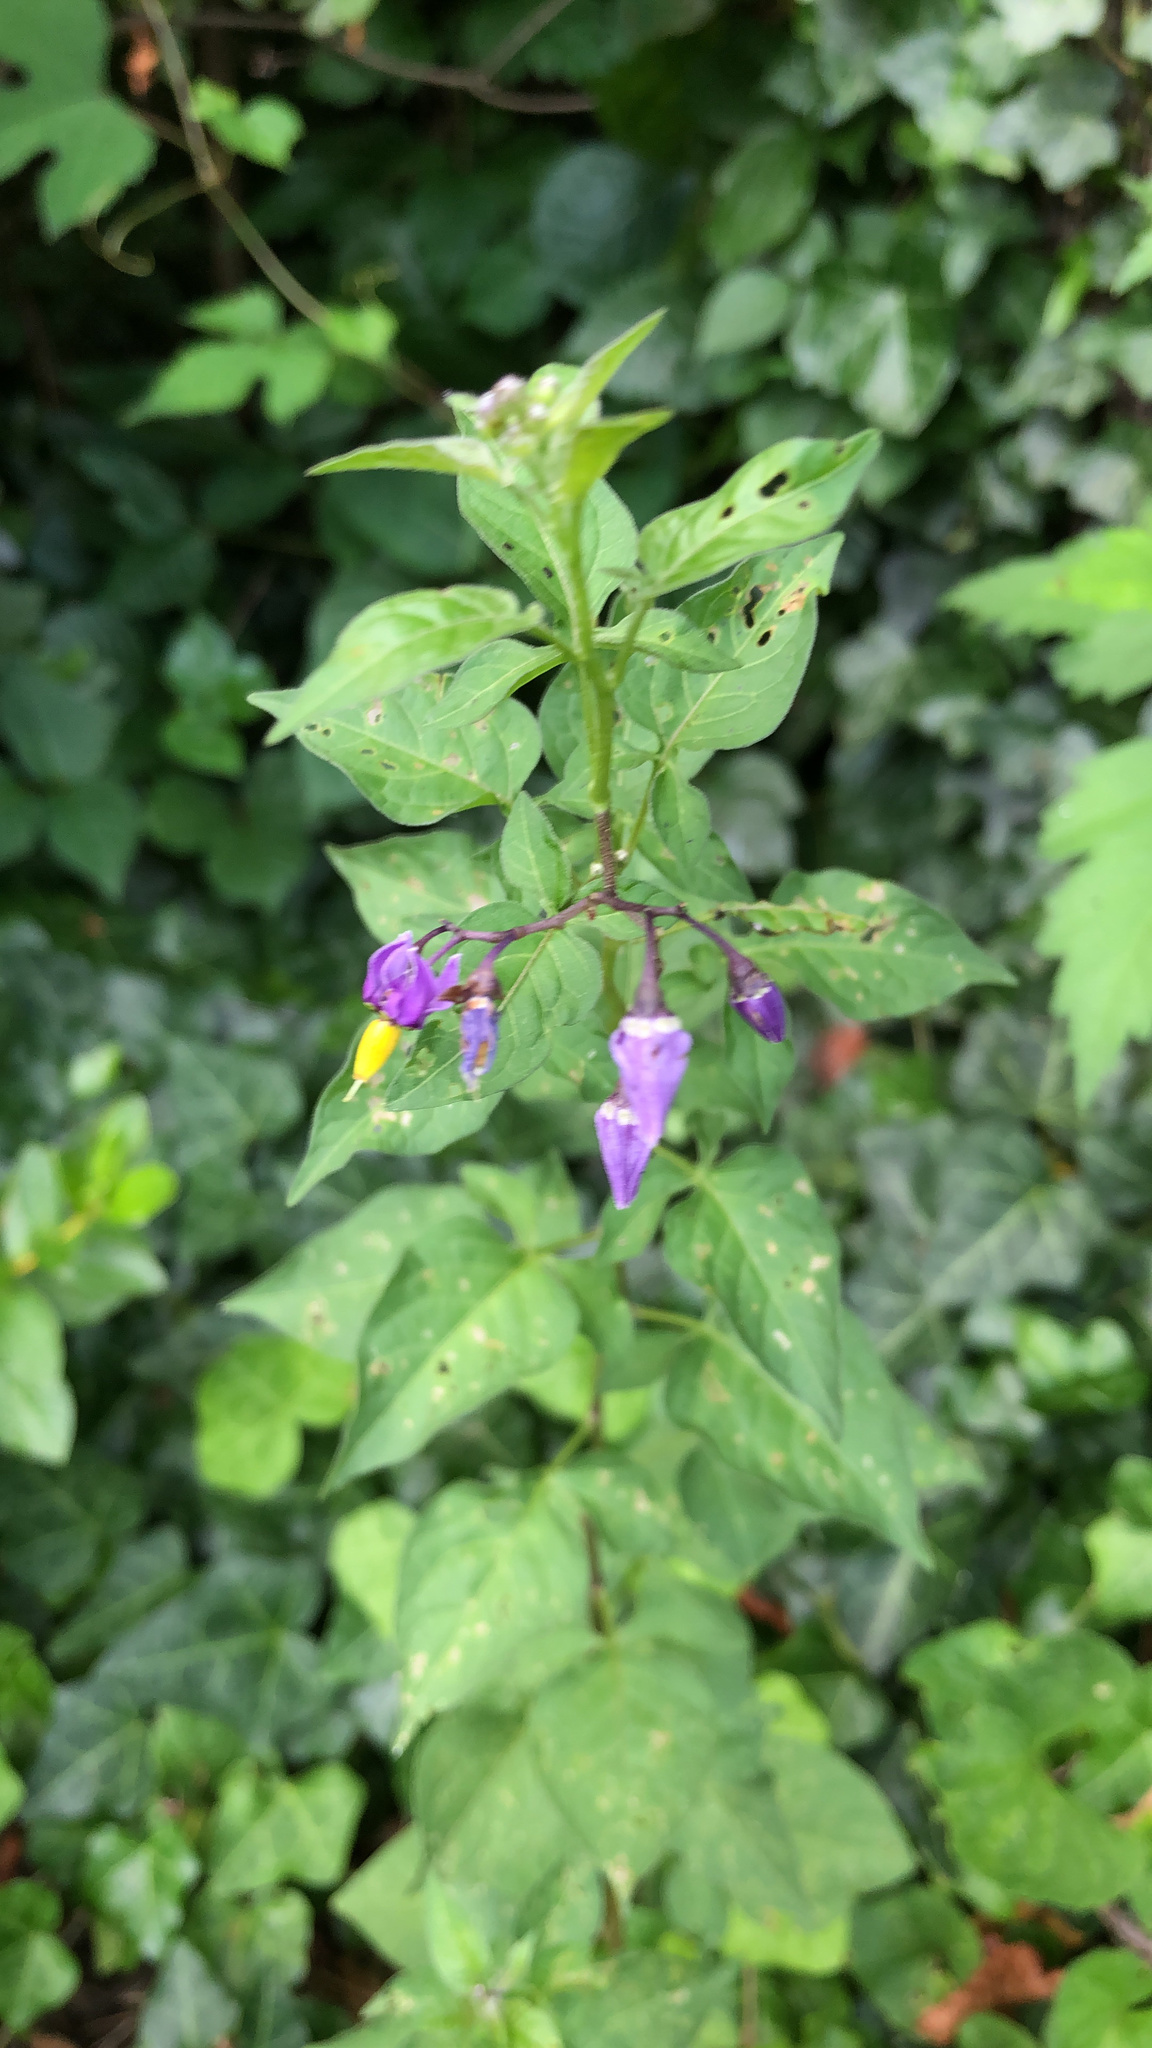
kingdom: Plantae
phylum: Tracheophyta
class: Magnoliopsida
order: Solanales
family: Solanaceae
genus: Solanum
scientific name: Solanum dulcamara
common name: Climbing nightshade
